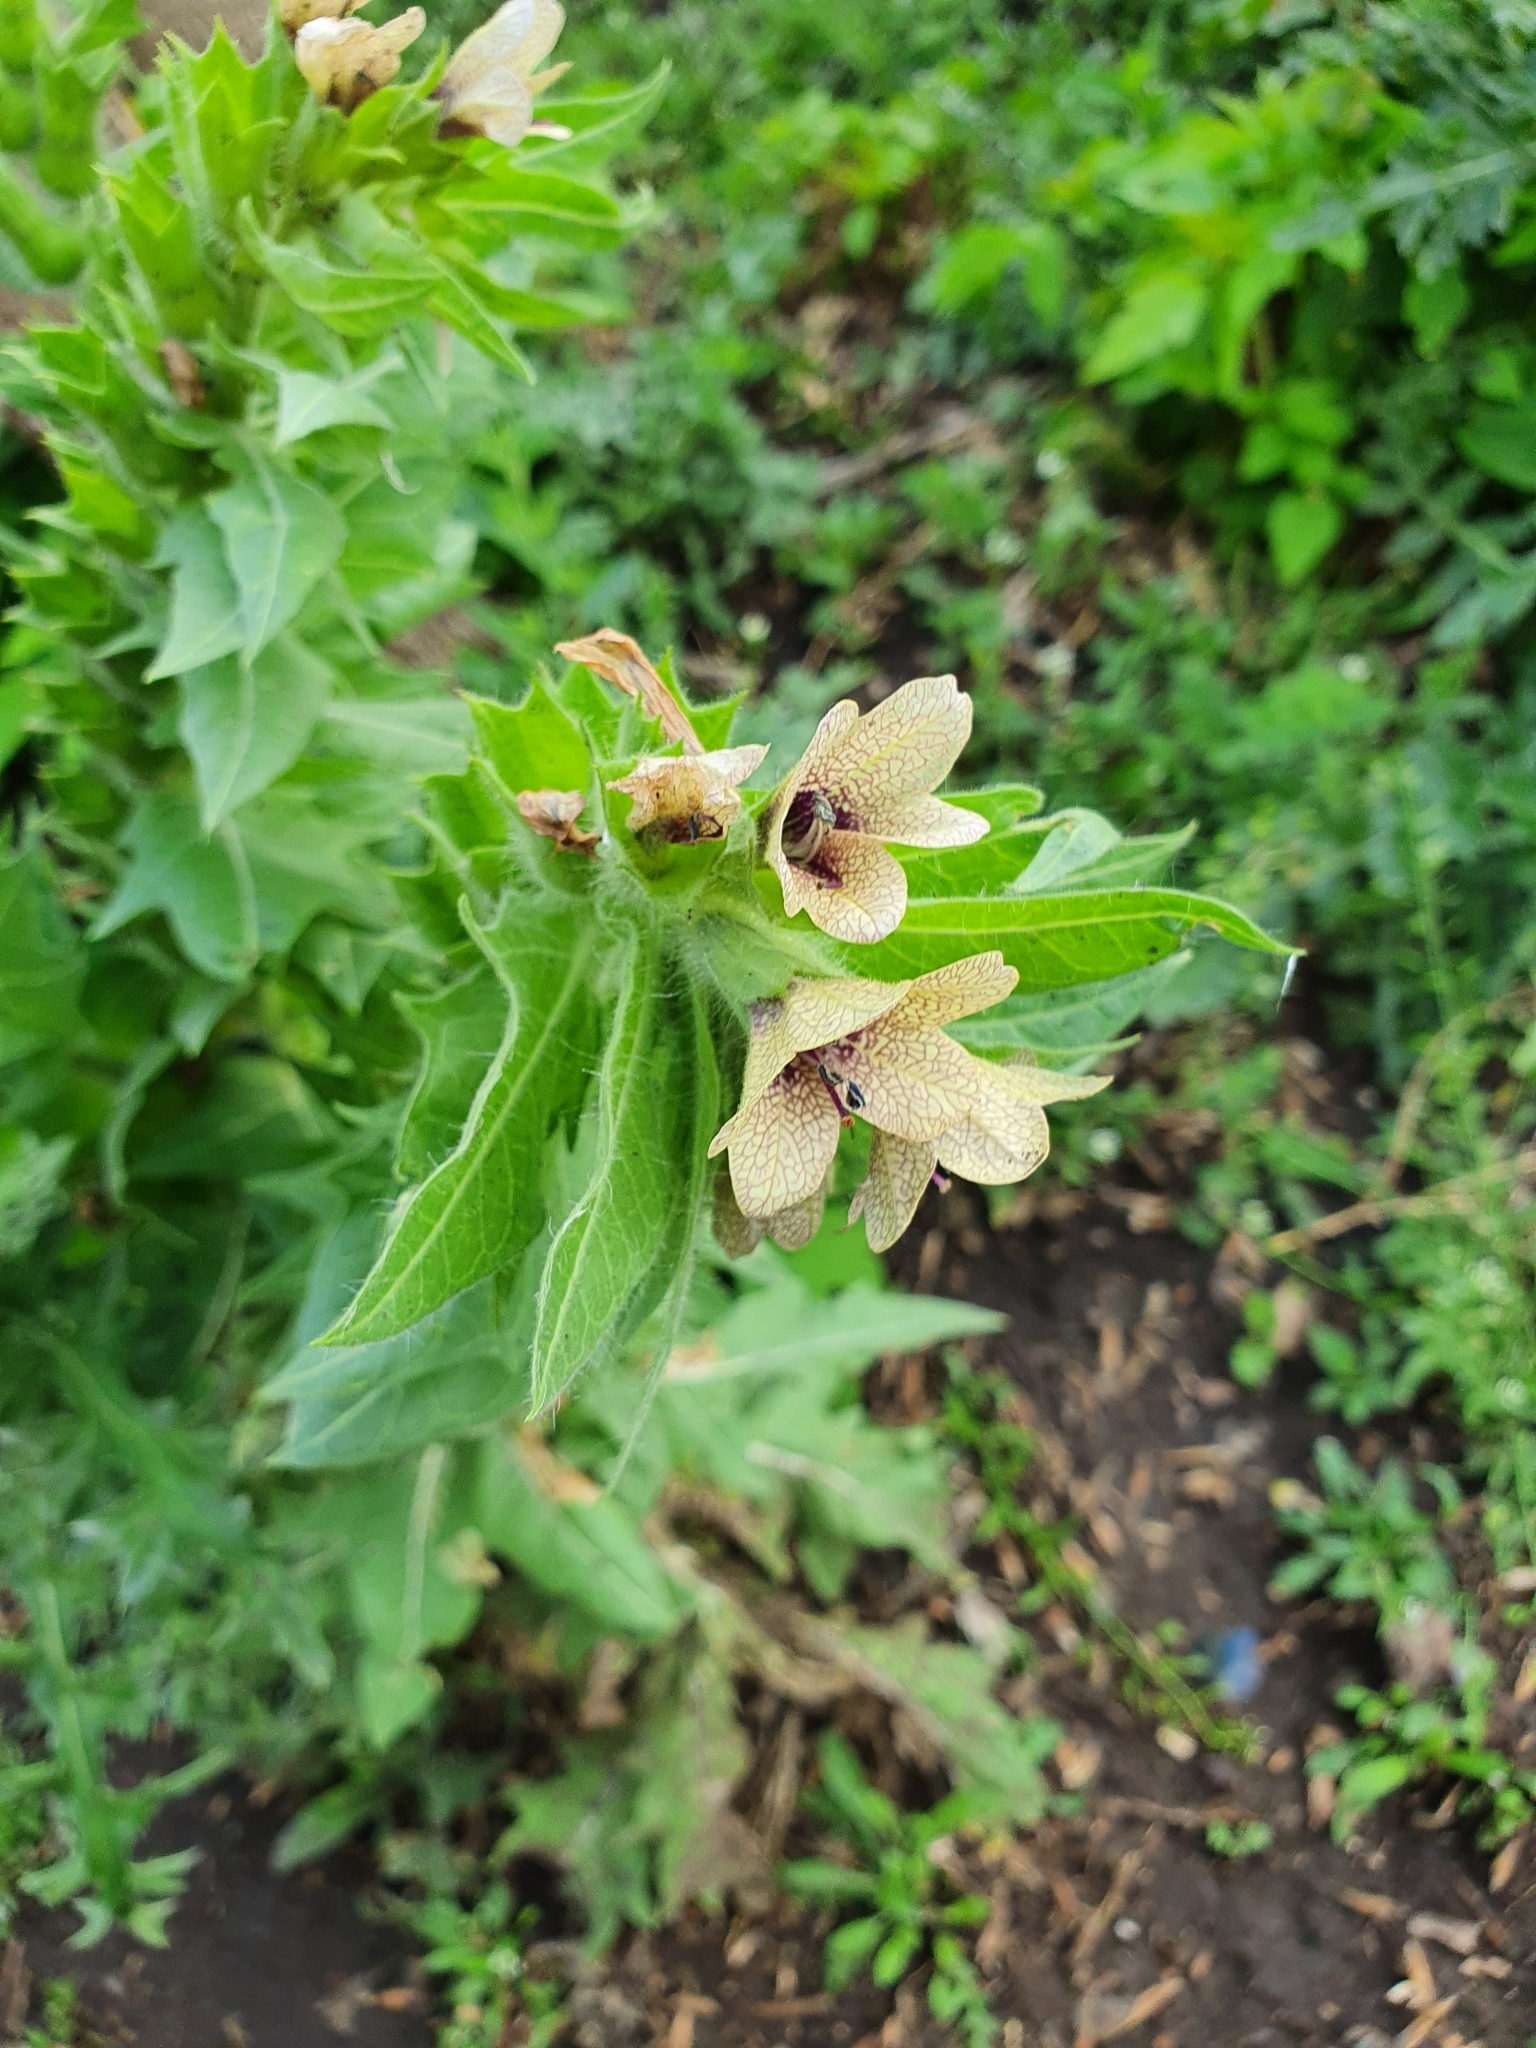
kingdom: Plantae
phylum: Tracheophyta
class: Magnoliopsida
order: Solanales
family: Solanaceae
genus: Hyoscyamus
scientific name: Hyoscyamus niger
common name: Henbane
